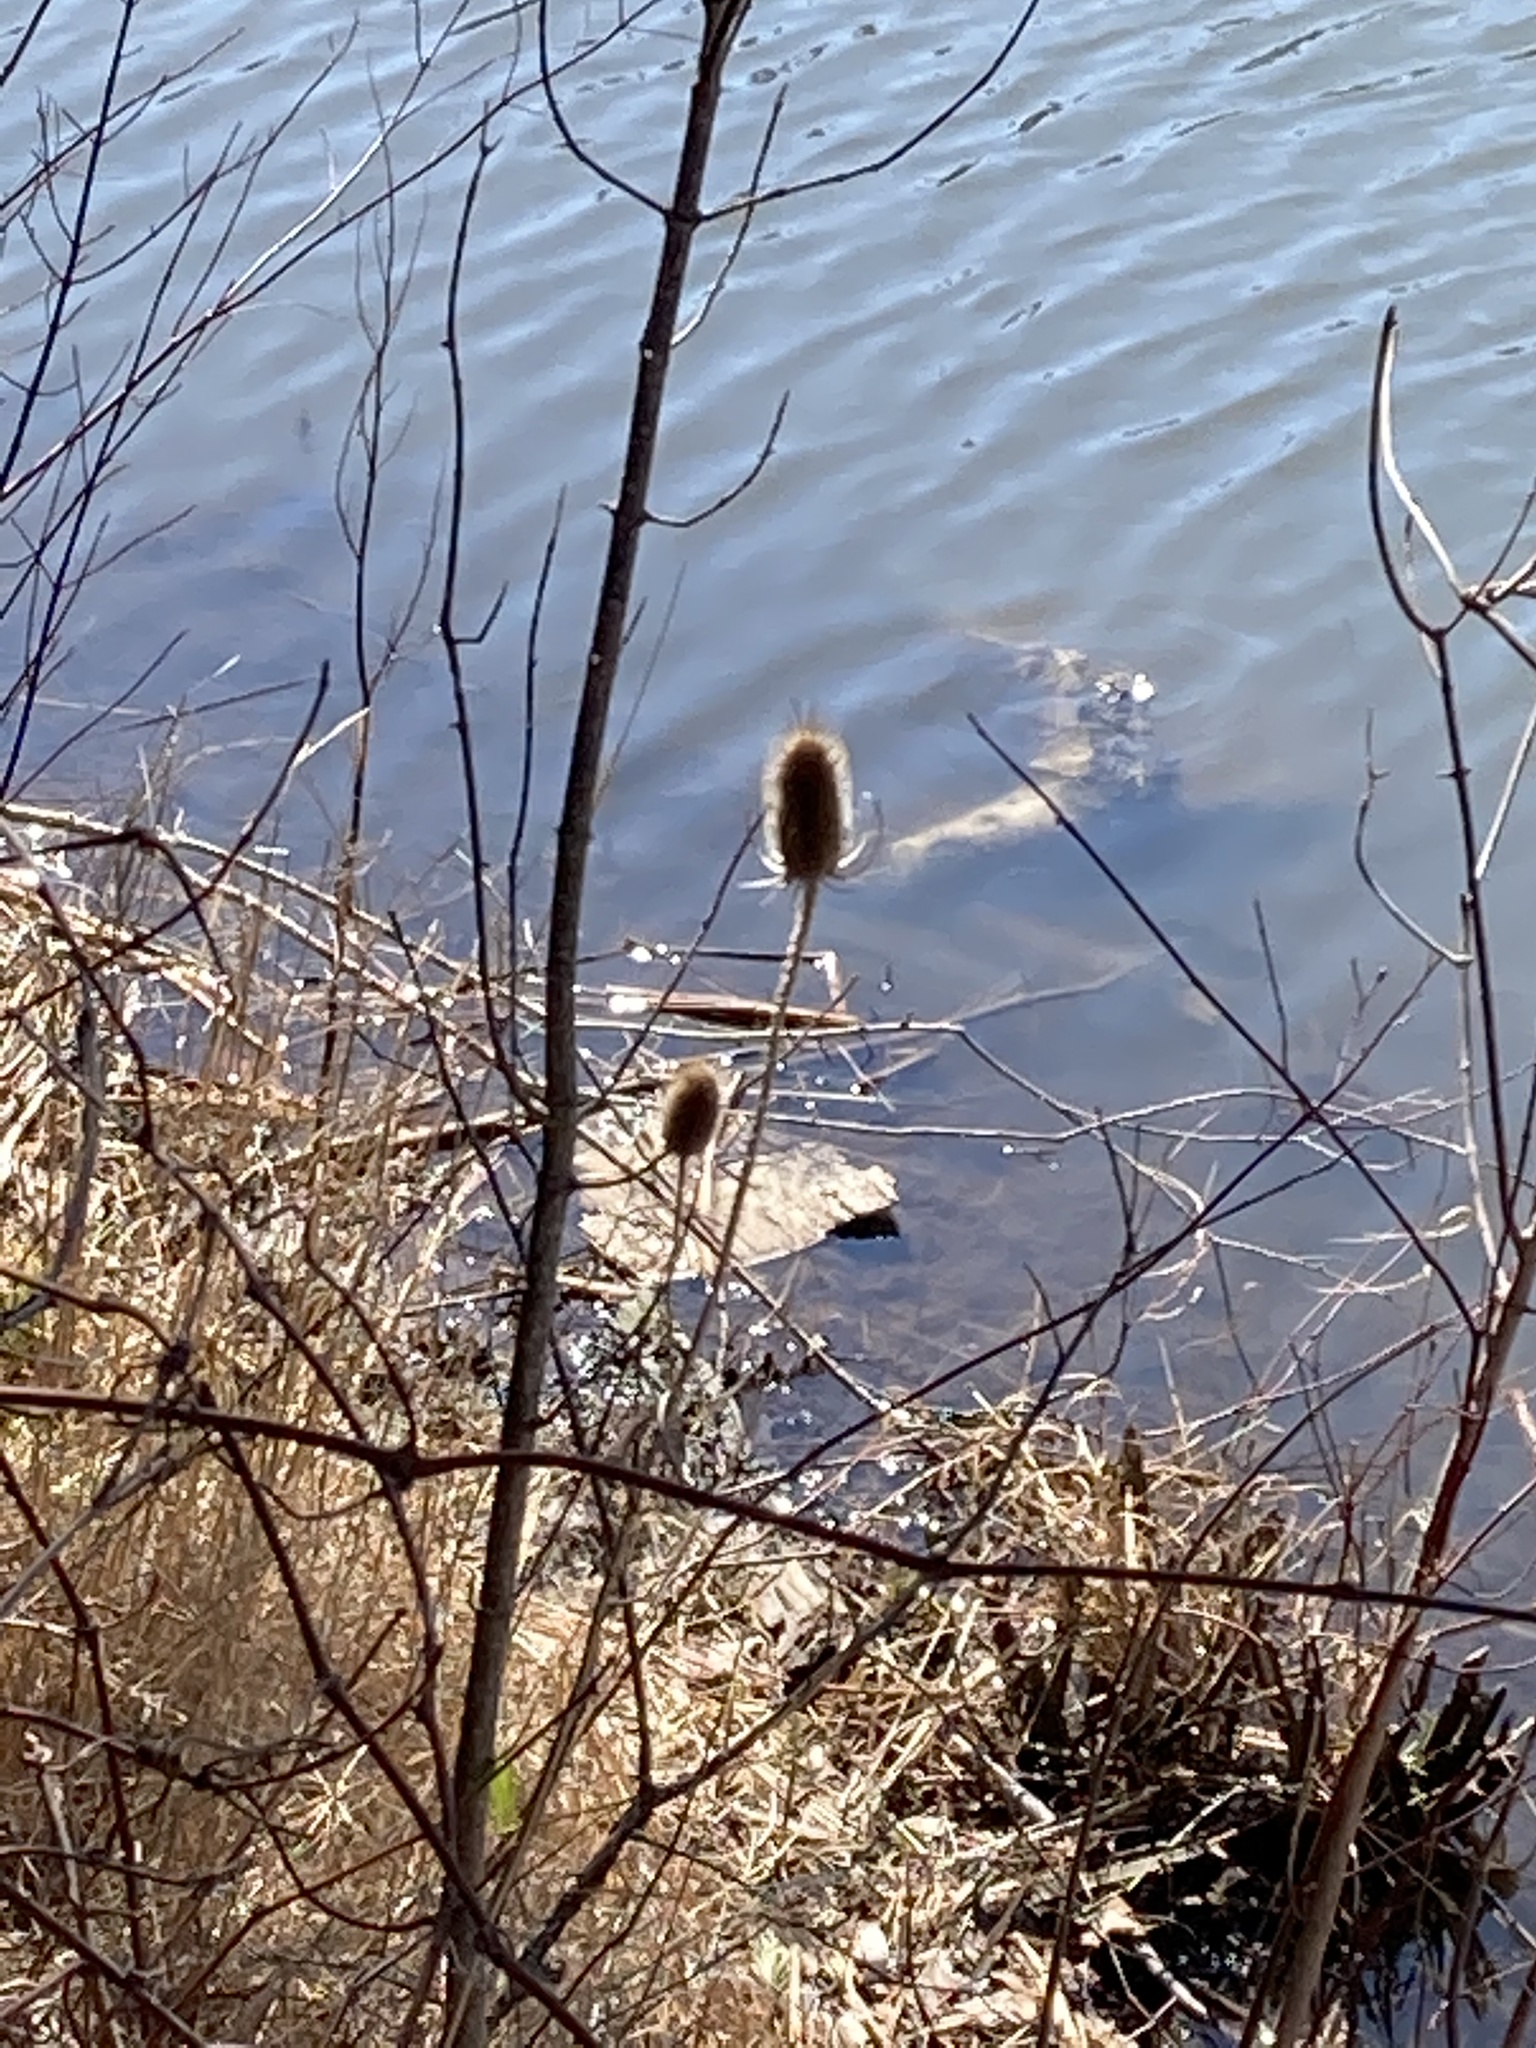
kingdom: Plantae
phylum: Tracheophyta
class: Magnoliopsida
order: Dipsacales
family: Caprifoliaceae
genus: Dipsacus
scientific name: Dipsacus fullonum
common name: Teasel
